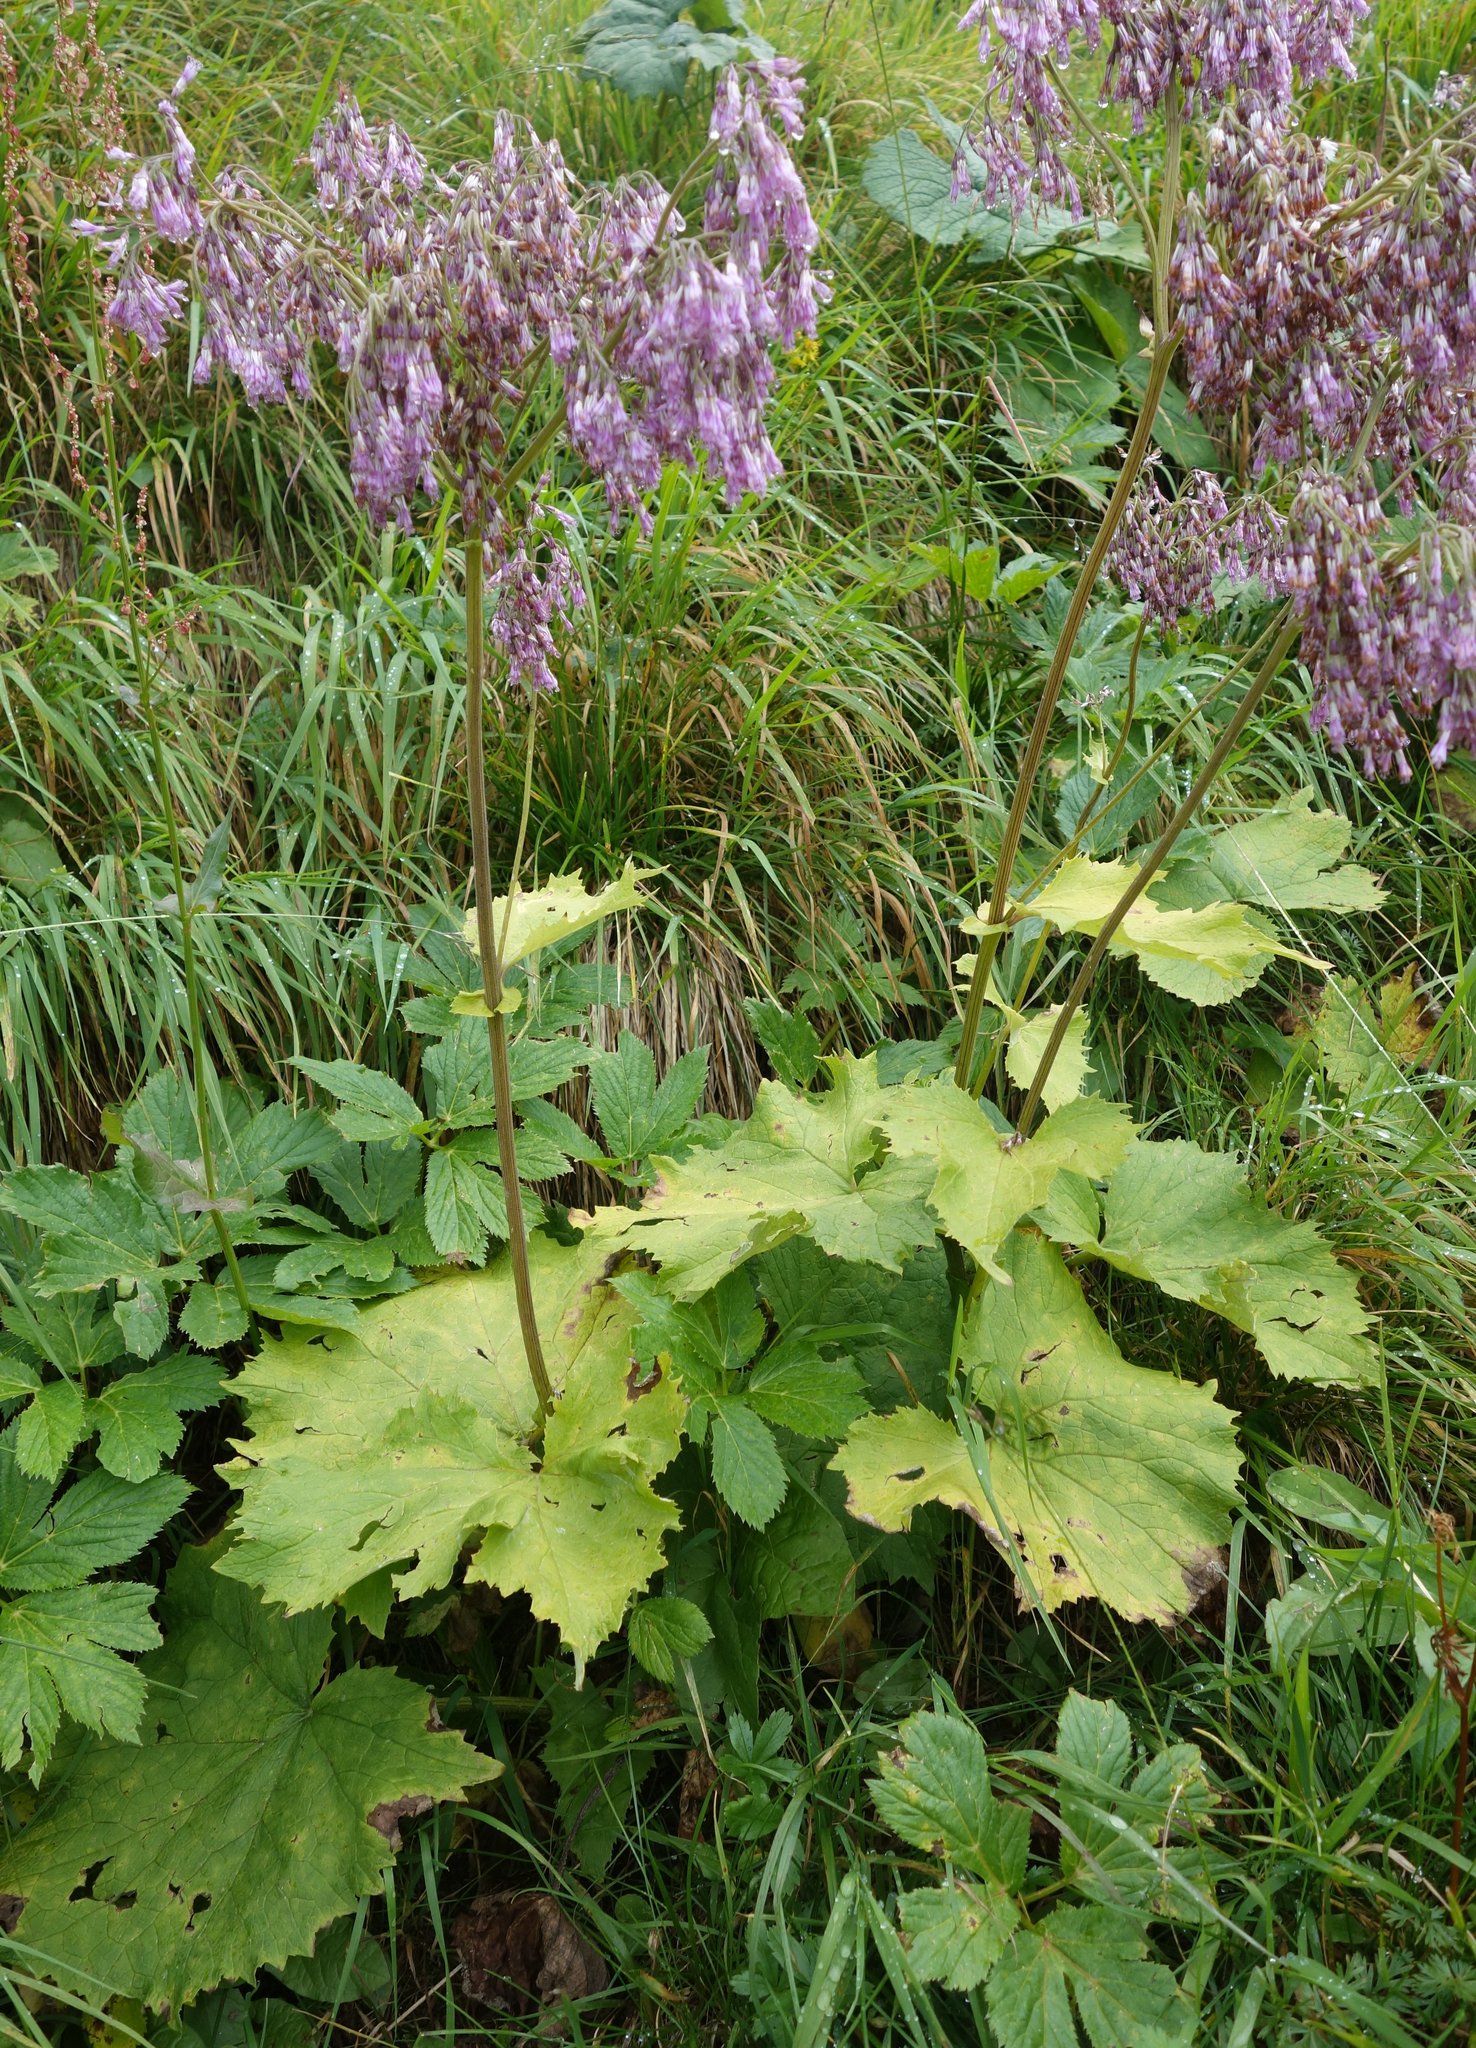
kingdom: Plantae
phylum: Tracheophyta
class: Magnoliopsida
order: Asterales
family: Asteraceae
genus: Adenostyles
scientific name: Adenostyles alliariae
